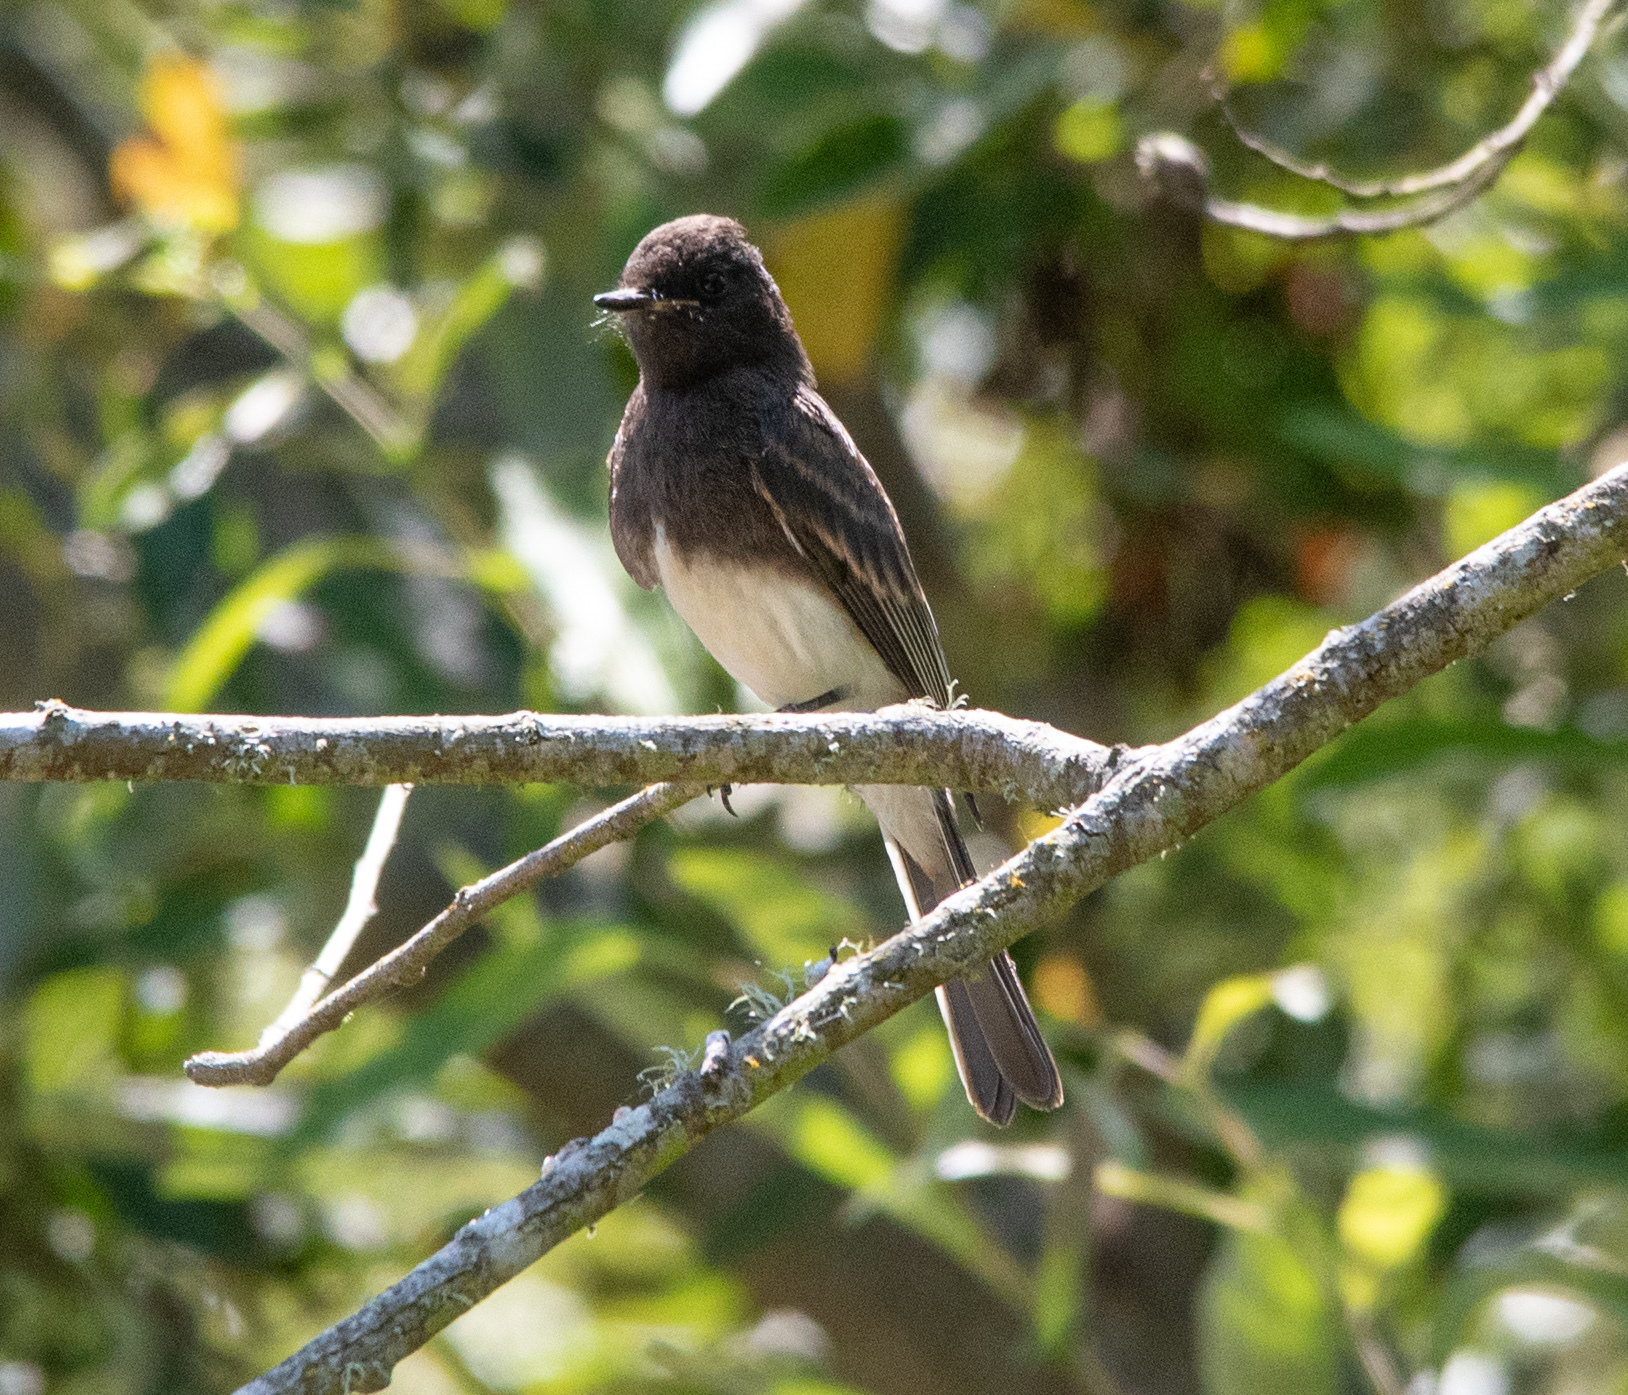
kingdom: Animalia
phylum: Chordata
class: Aves
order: Passeriformes
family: Tyrannidae
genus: Sayornis
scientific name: Sayornis nigricans
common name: Black phoebe
